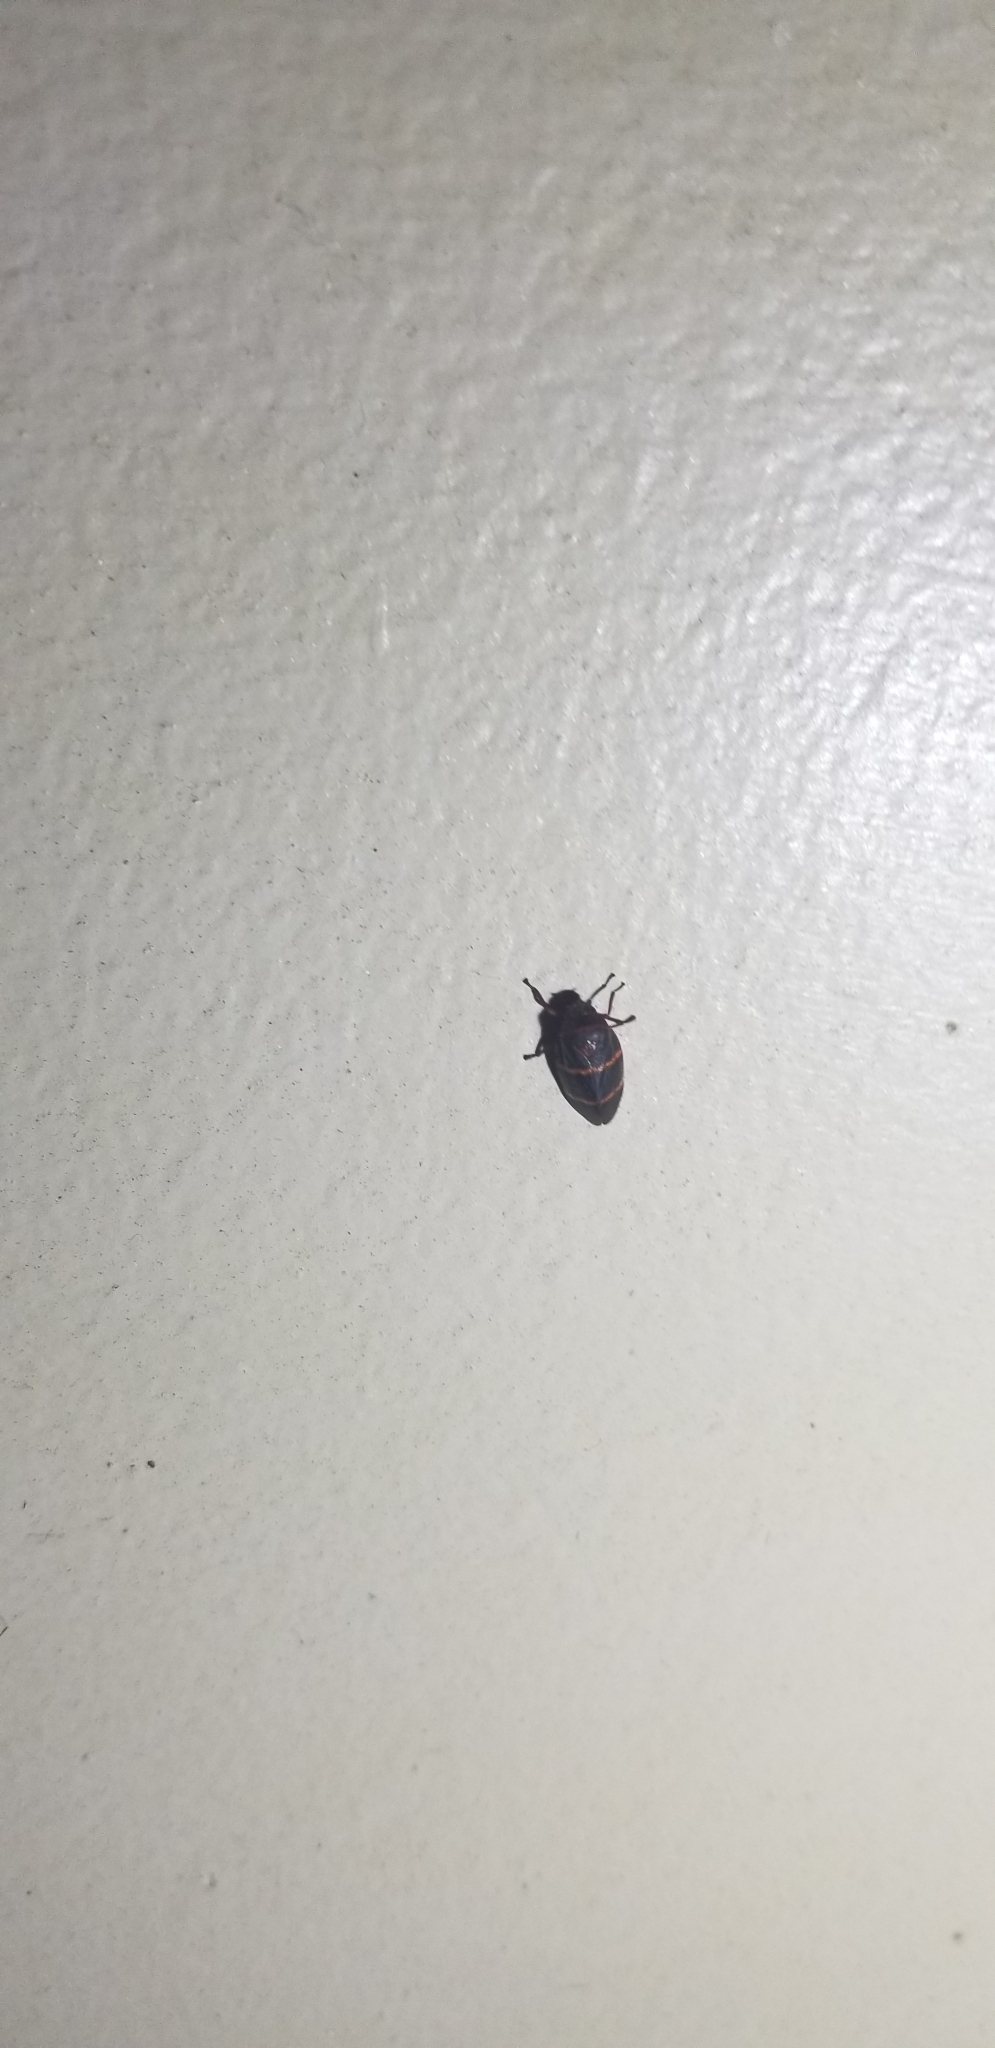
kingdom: Animalia
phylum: Arthropoda
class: Insecta
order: Hemiptera
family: Cercopidae
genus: Prosapia
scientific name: Prosapia bicincta
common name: Twolined spittlebug
